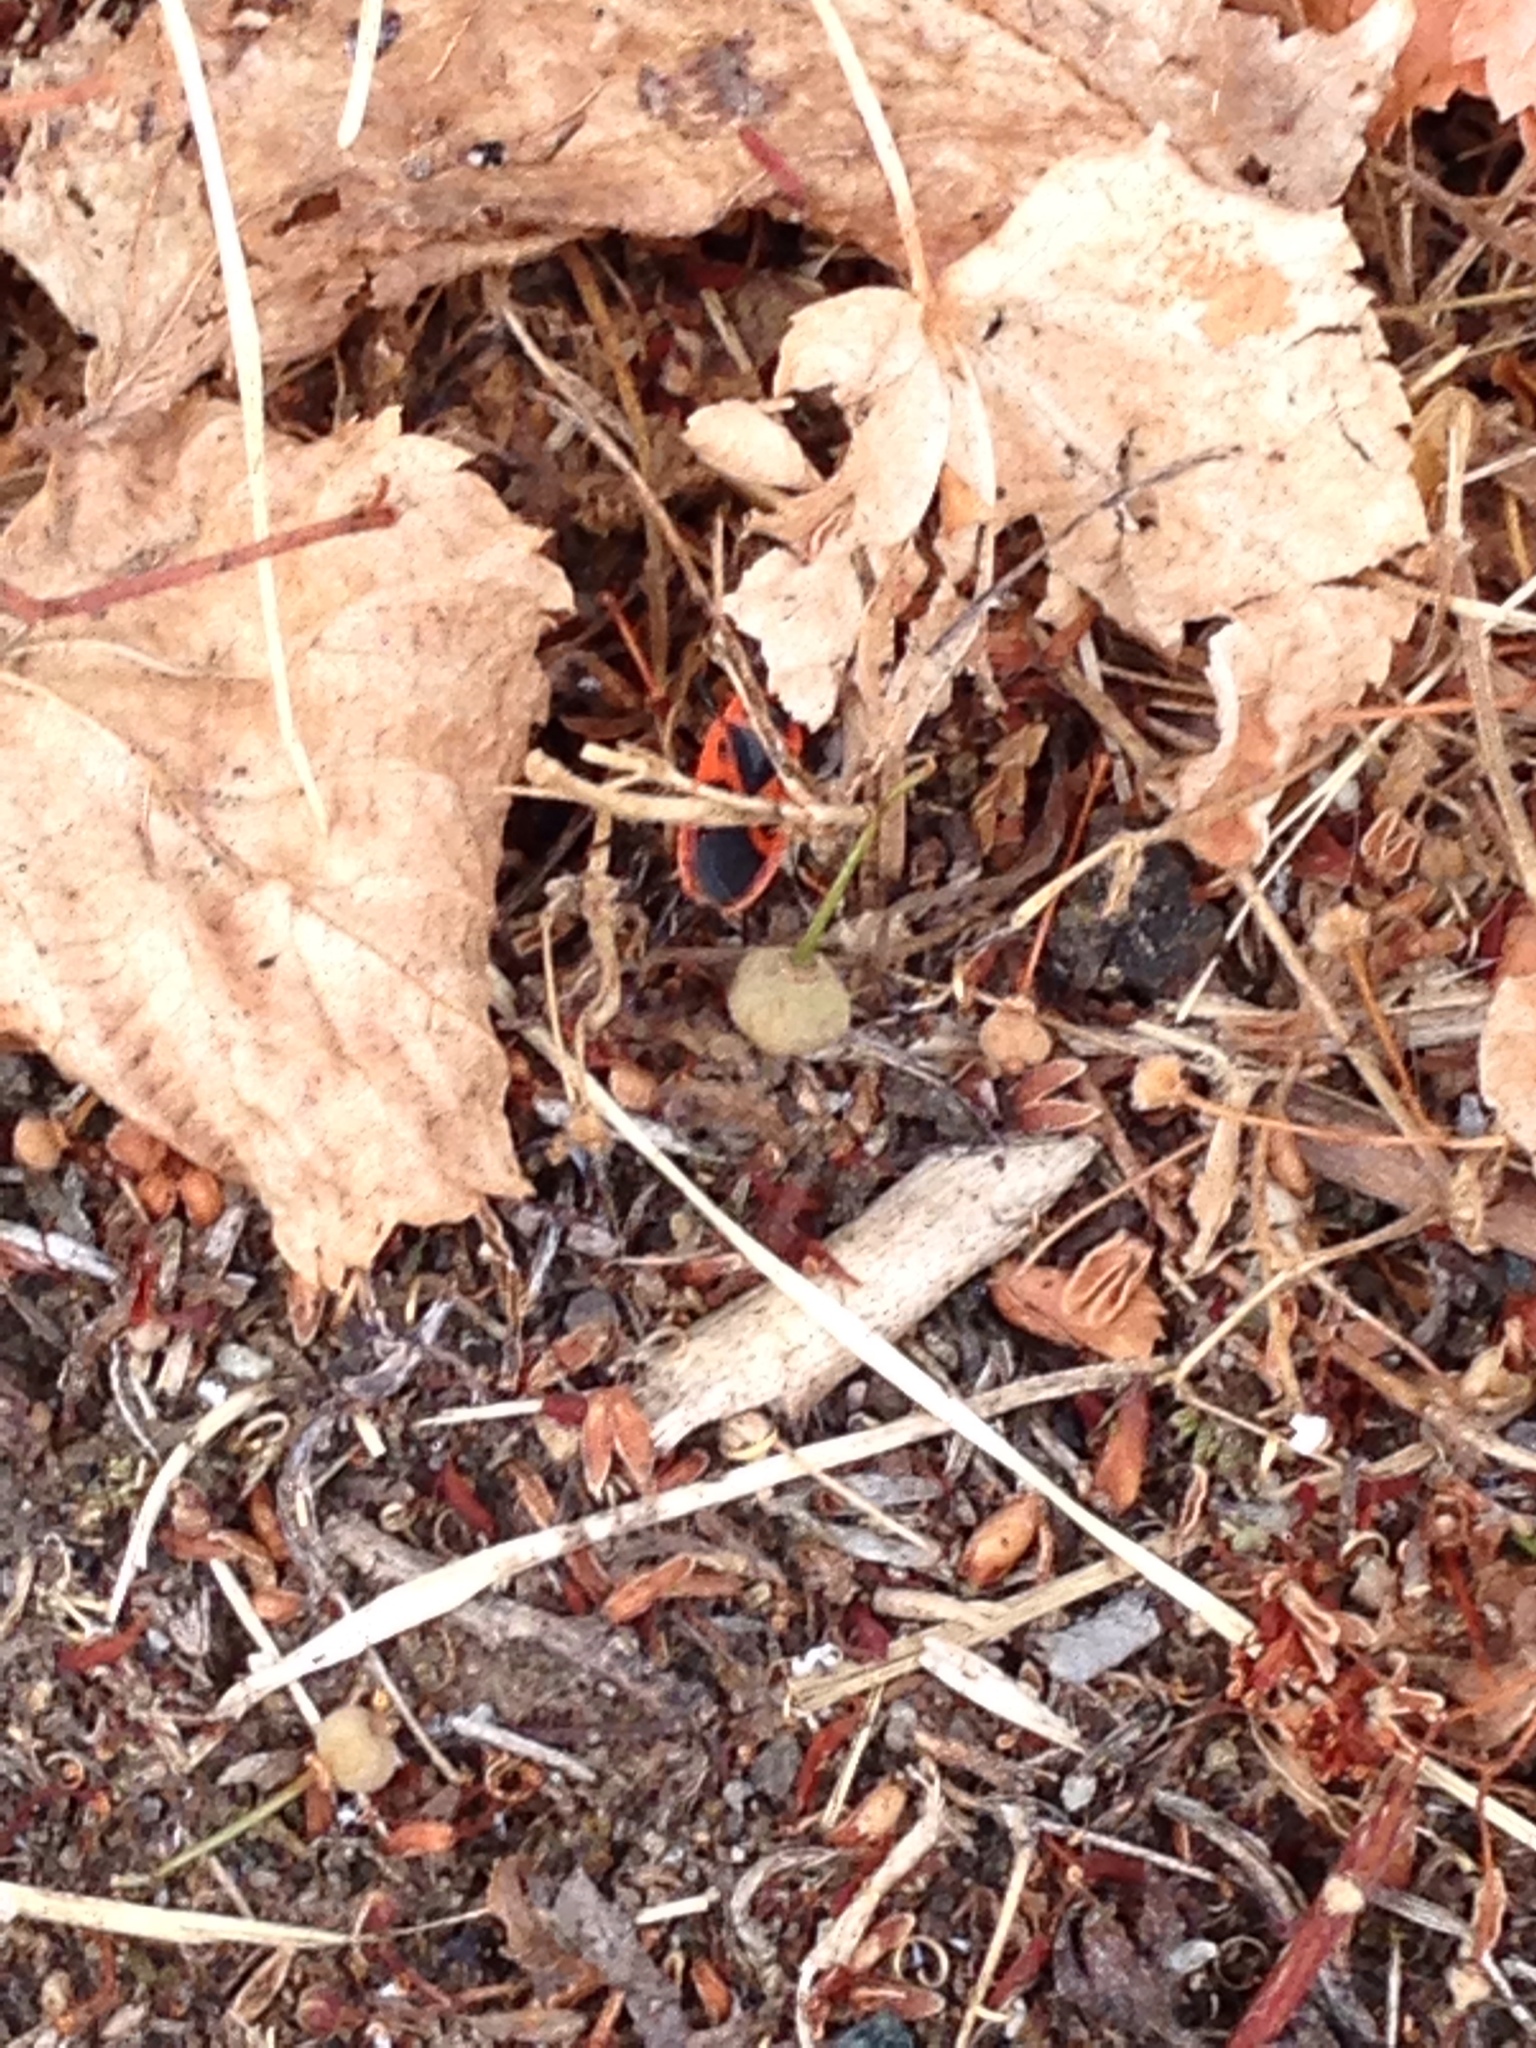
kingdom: Animalia
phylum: Arthropoda
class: Insecta
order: Hemiptera
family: Pyrrhocoridae
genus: Pyrrhocoris
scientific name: Pyrrhocoris apterus
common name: Firebug
